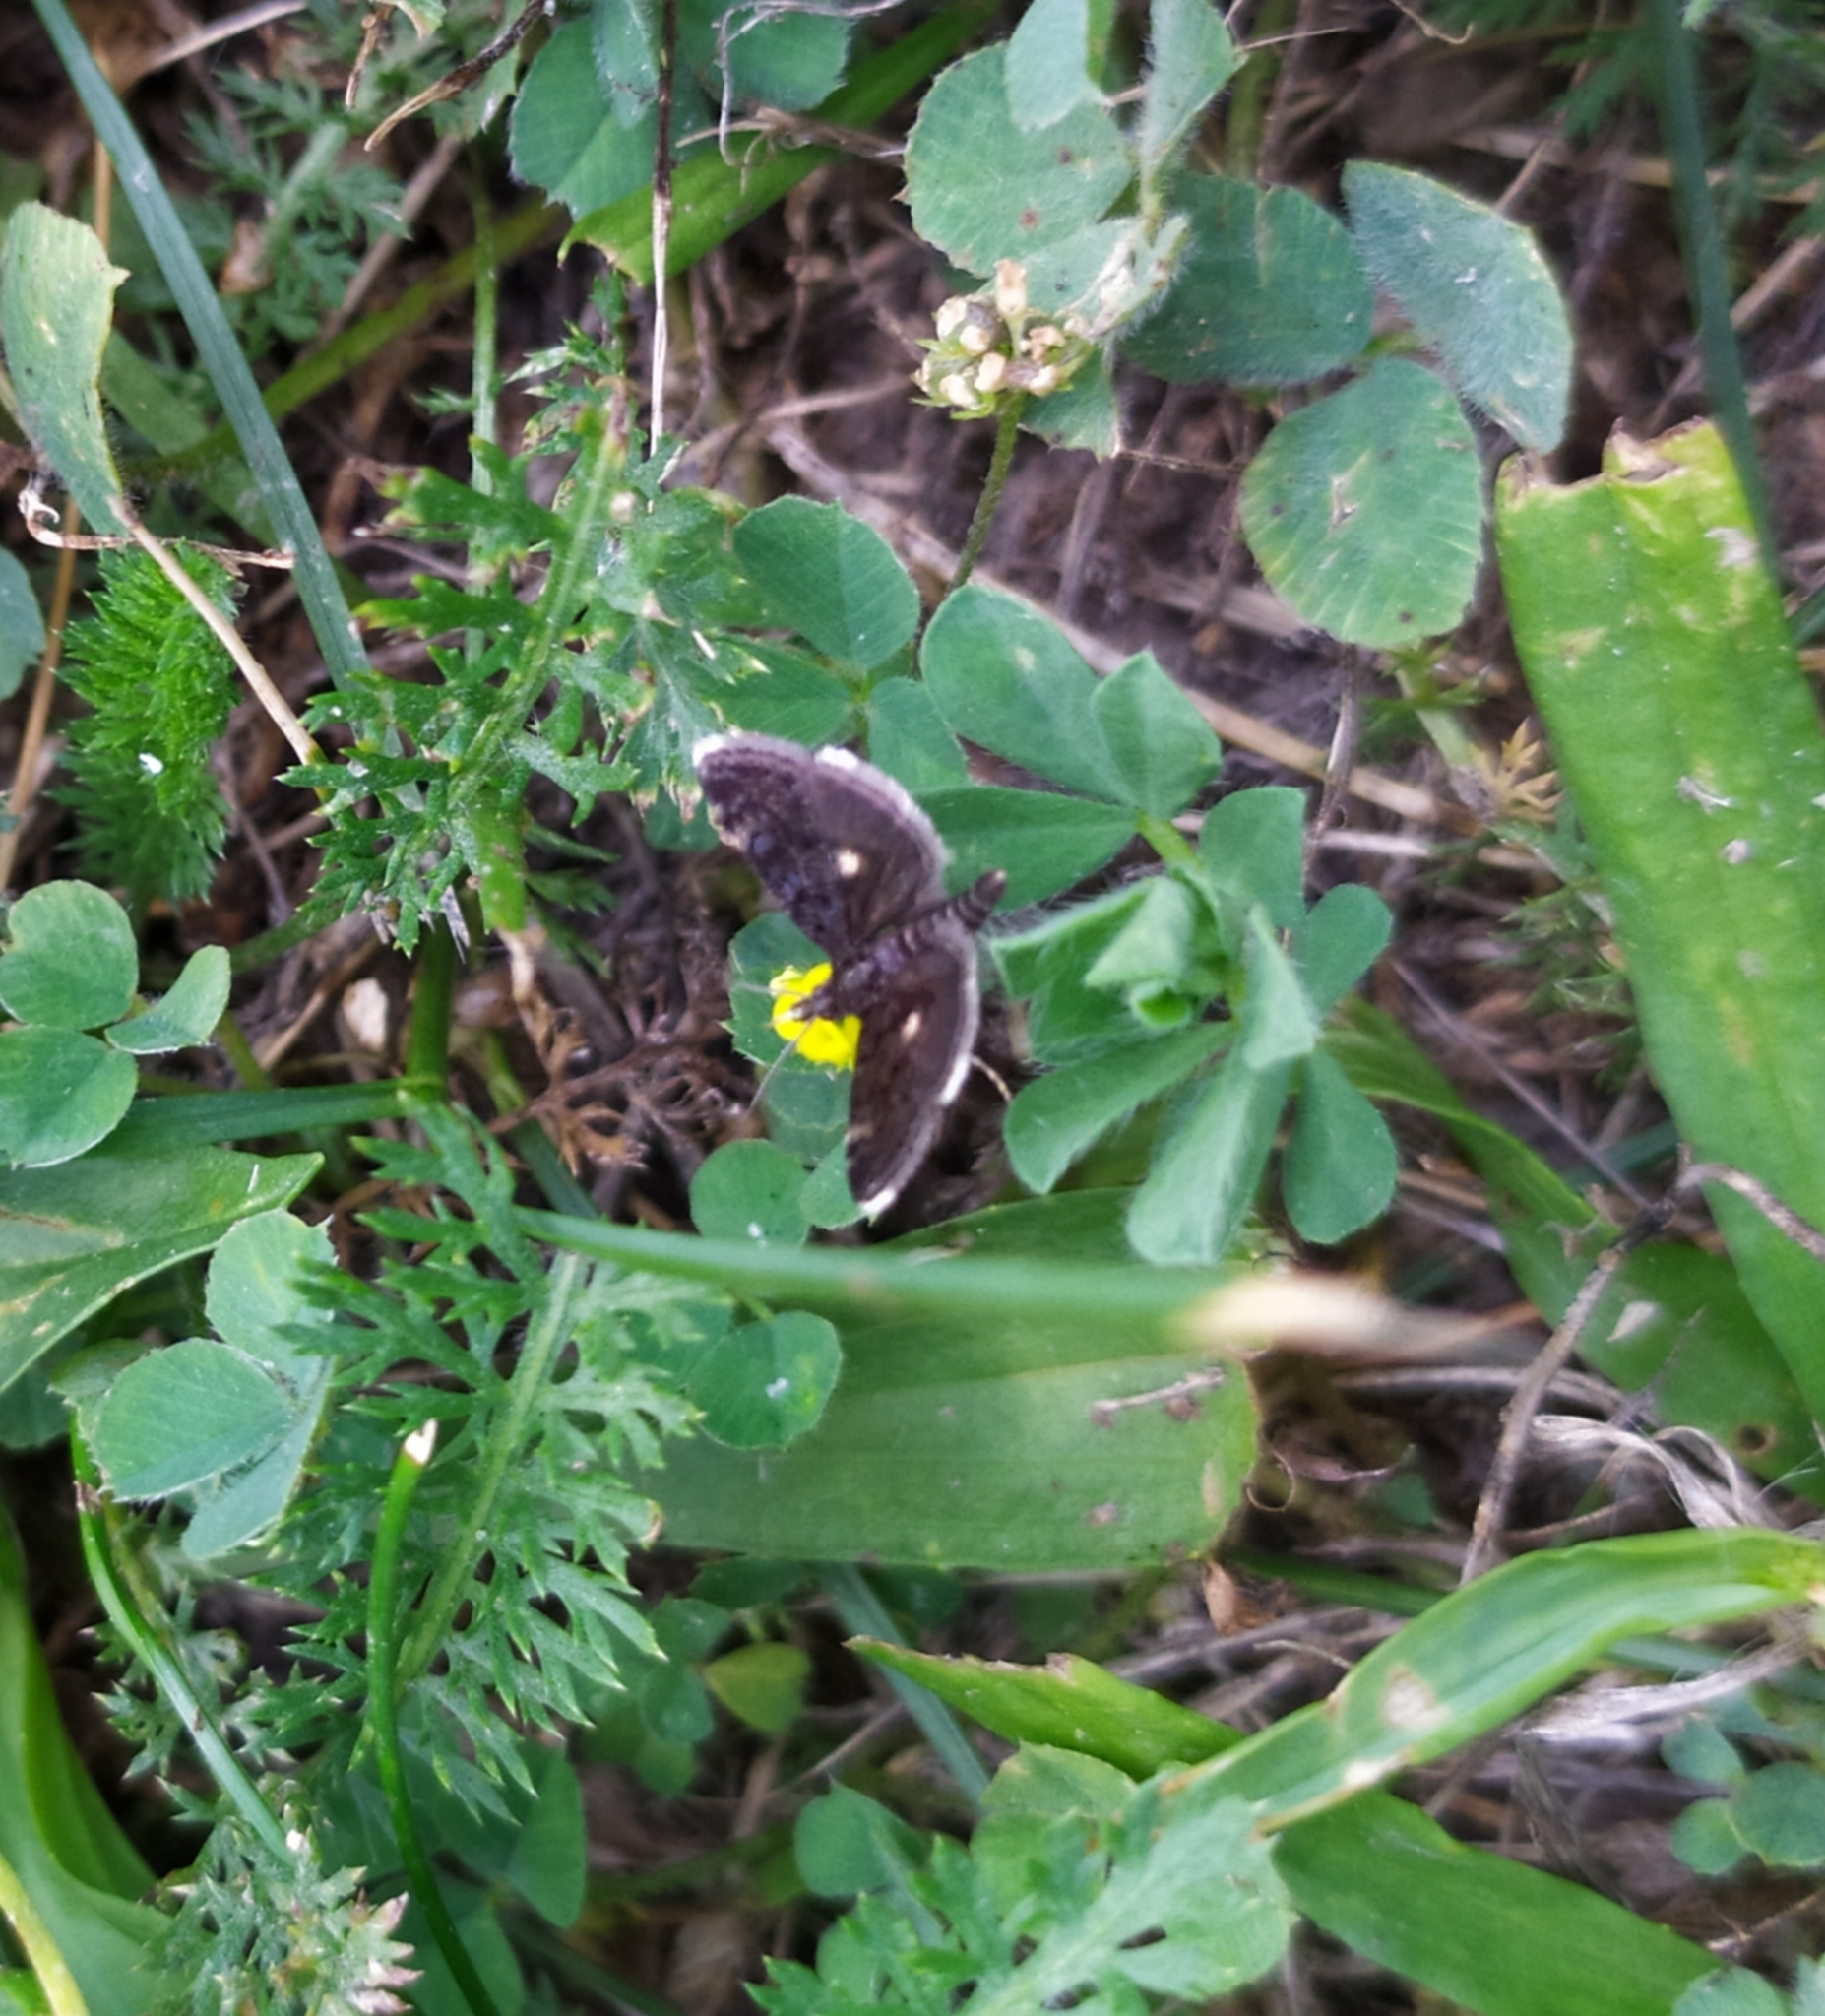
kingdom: Animalia
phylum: Arthropoda
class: Insecta
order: Lepidoptera
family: Crambidae
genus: Heliothela
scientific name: Heliothela wulfeniana
